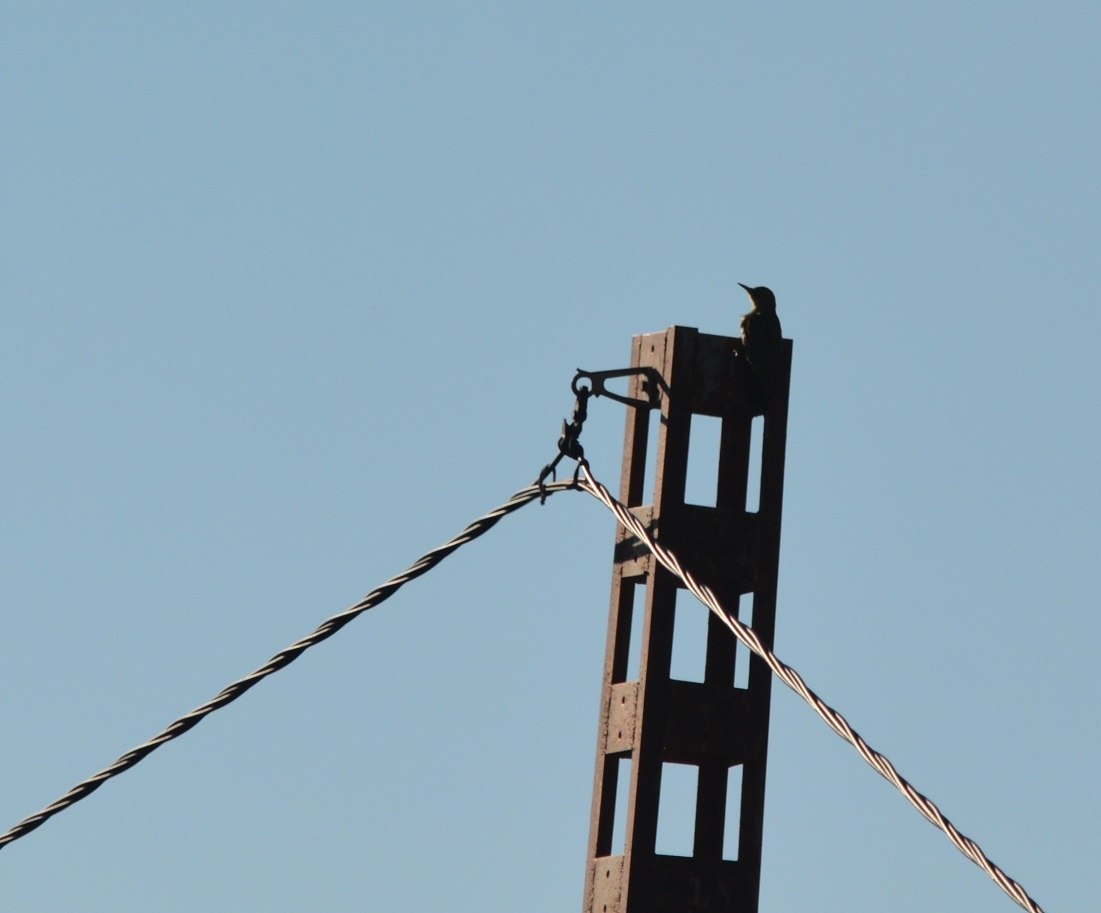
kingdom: Animalia
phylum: Chordata
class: Aves
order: Piciformes
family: Picidae
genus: Picus
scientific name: Picus vaillantii
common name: Levaillant's woodpecker
